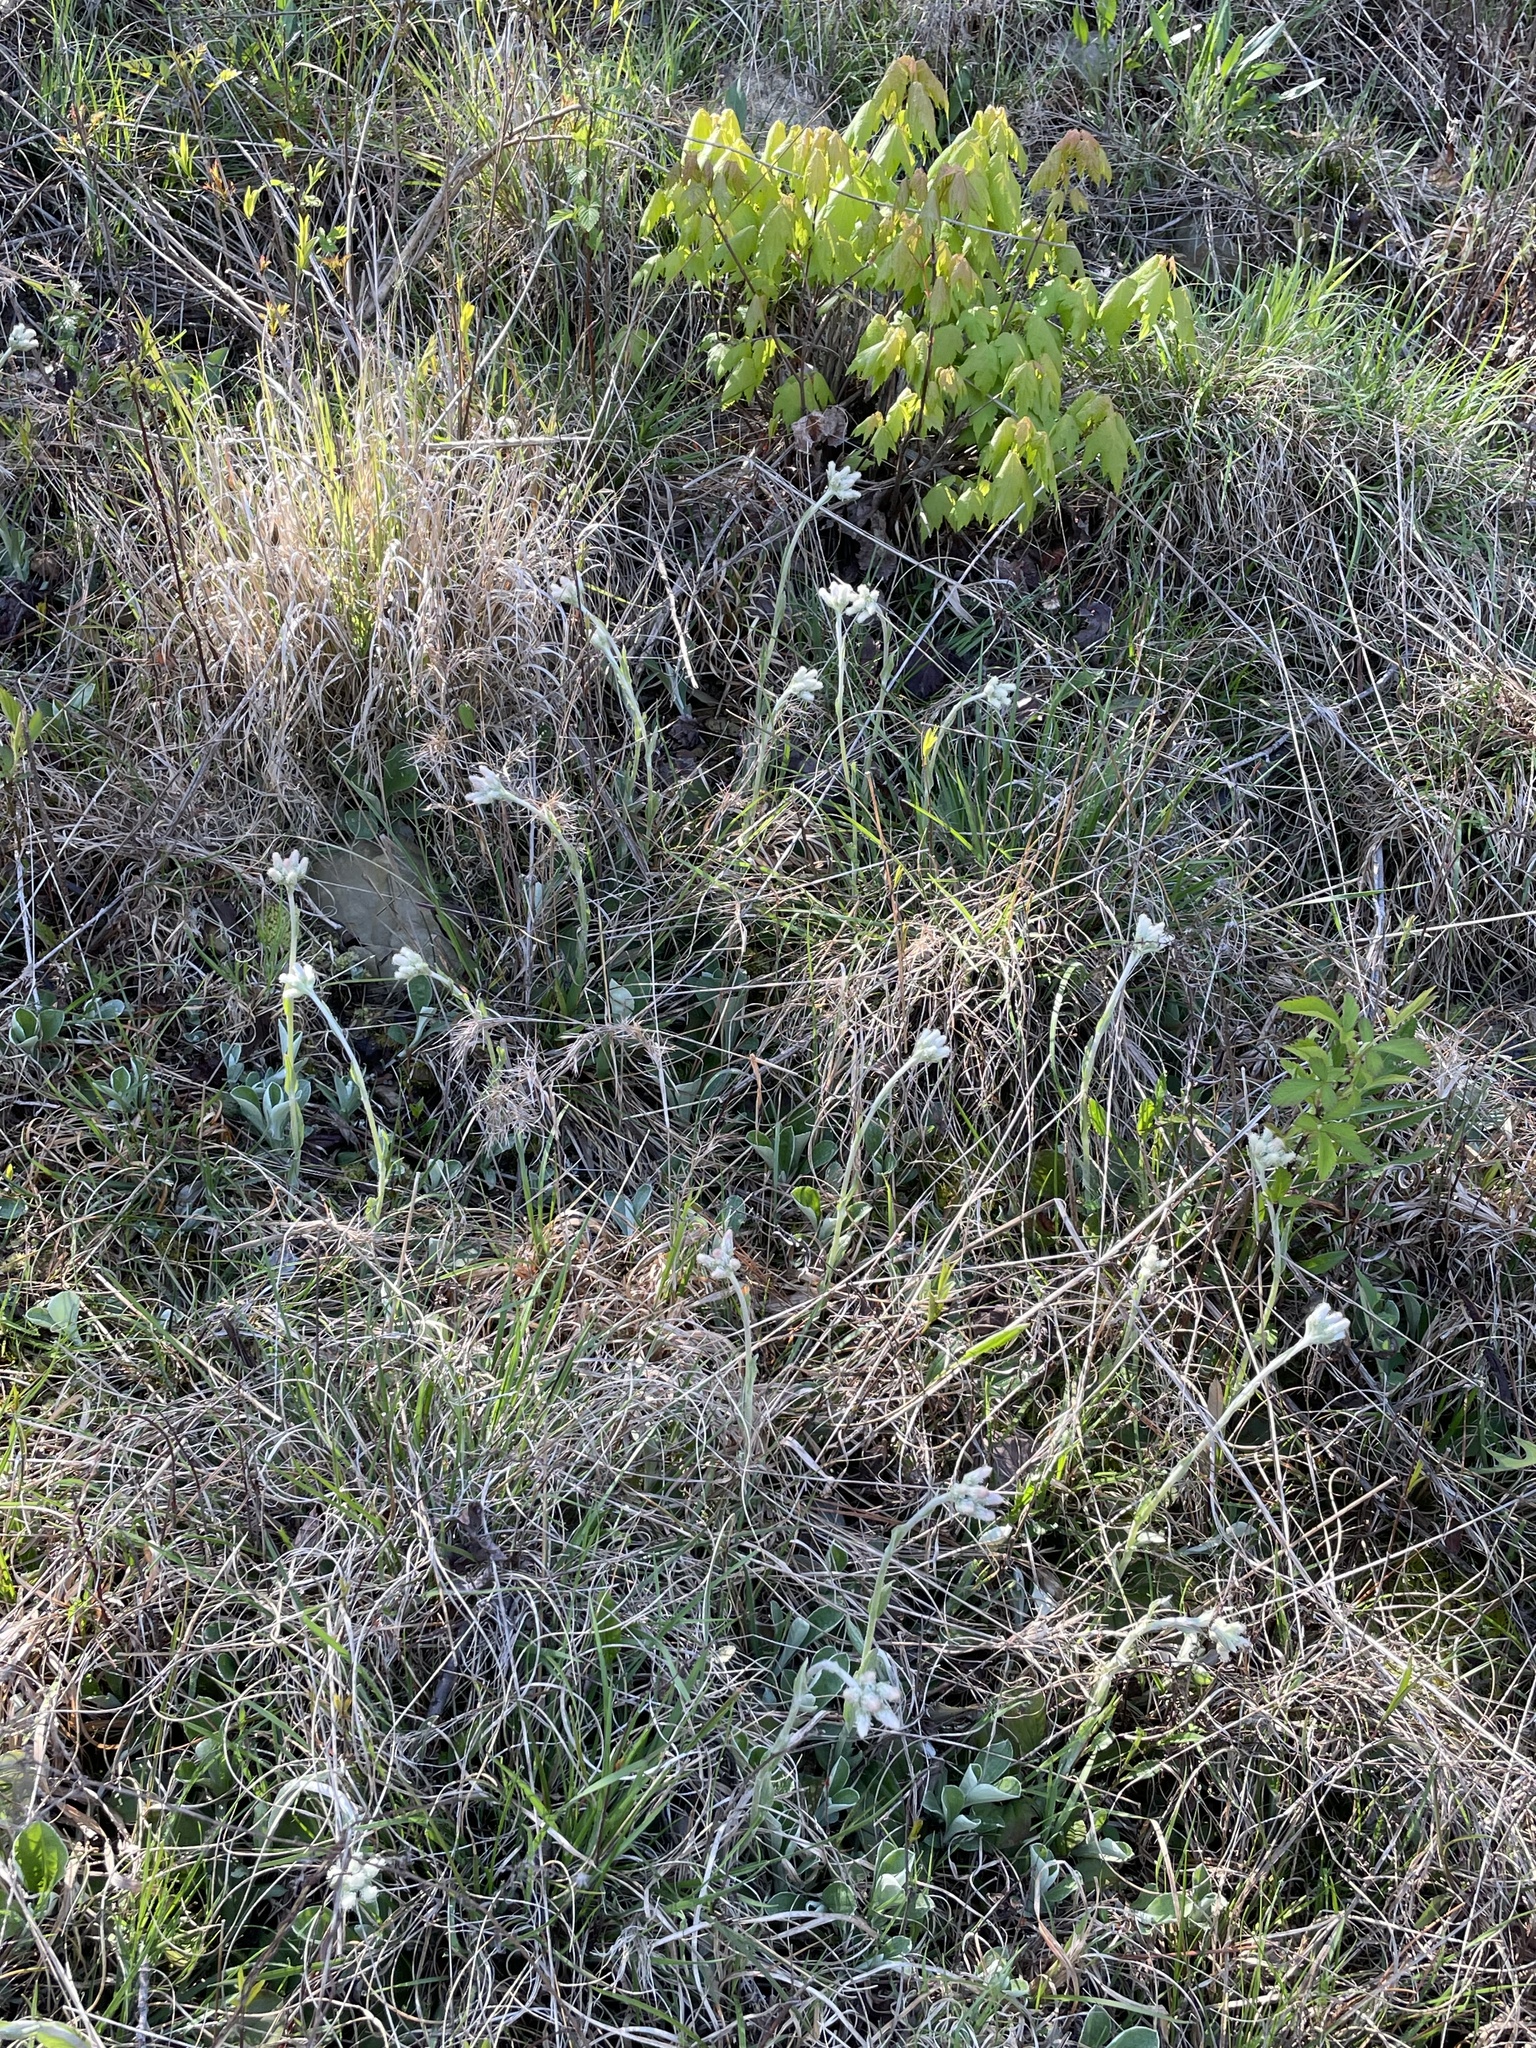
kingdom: Plantae
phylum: Tracheophyta
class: Magnoliopsida
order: Asterales
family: Asteraceae
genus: Antennaria
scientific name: Antennaria parlinii
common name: Parlin's pussytoes
